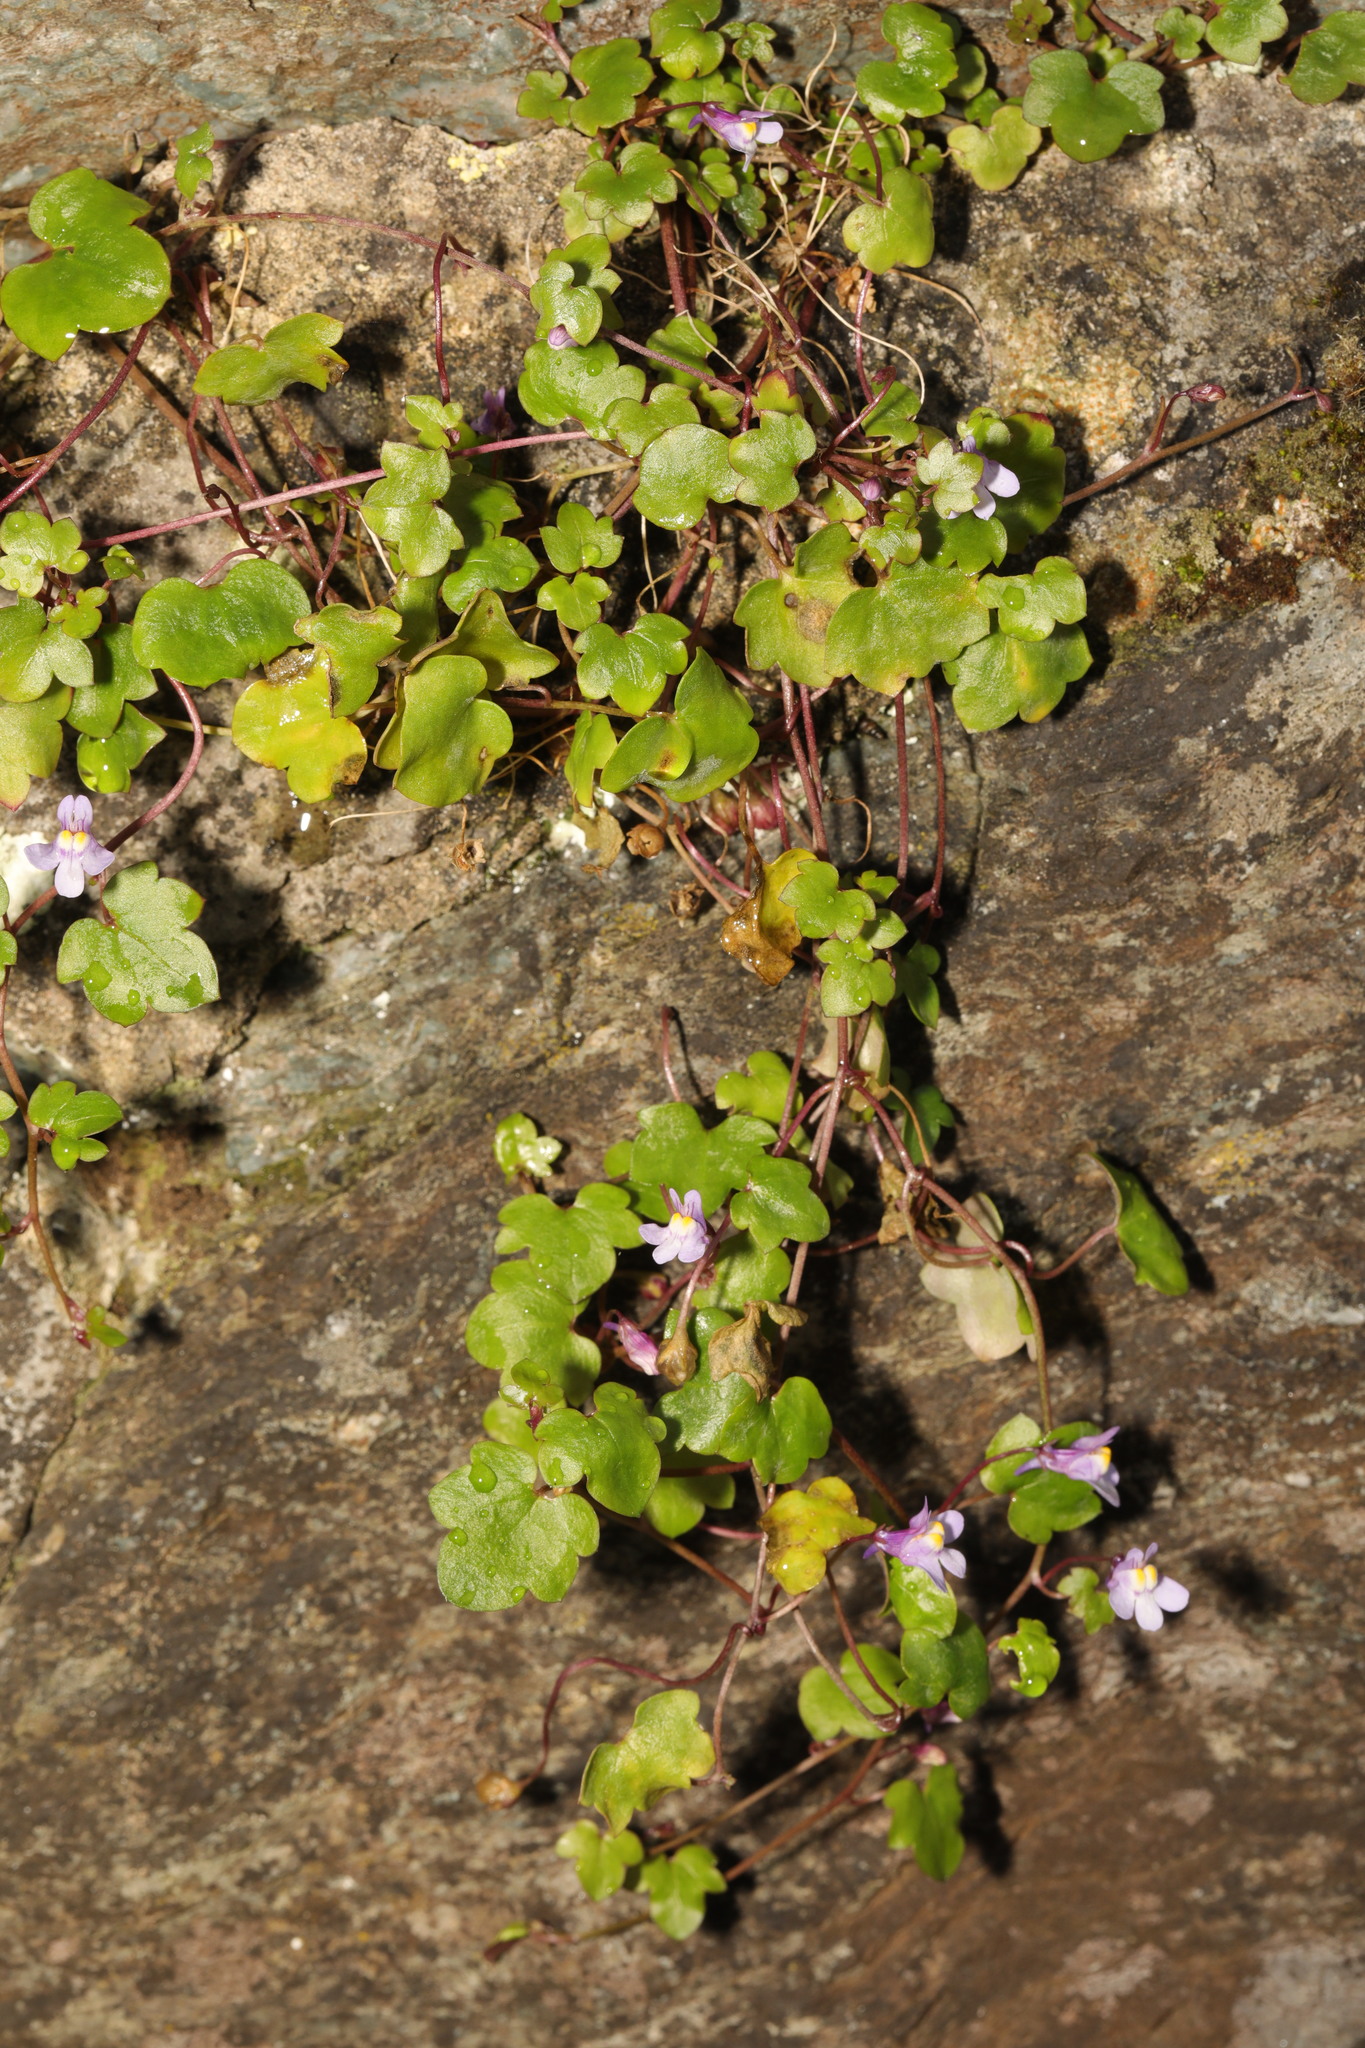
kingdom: Plantae
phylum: Tracheophyta
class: Magnoliopsida
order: Lamiales
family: Plantaginaceae
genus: Cymbalaria
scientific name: Cymbalaria muralis
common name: Ivy-leaved toadflax
